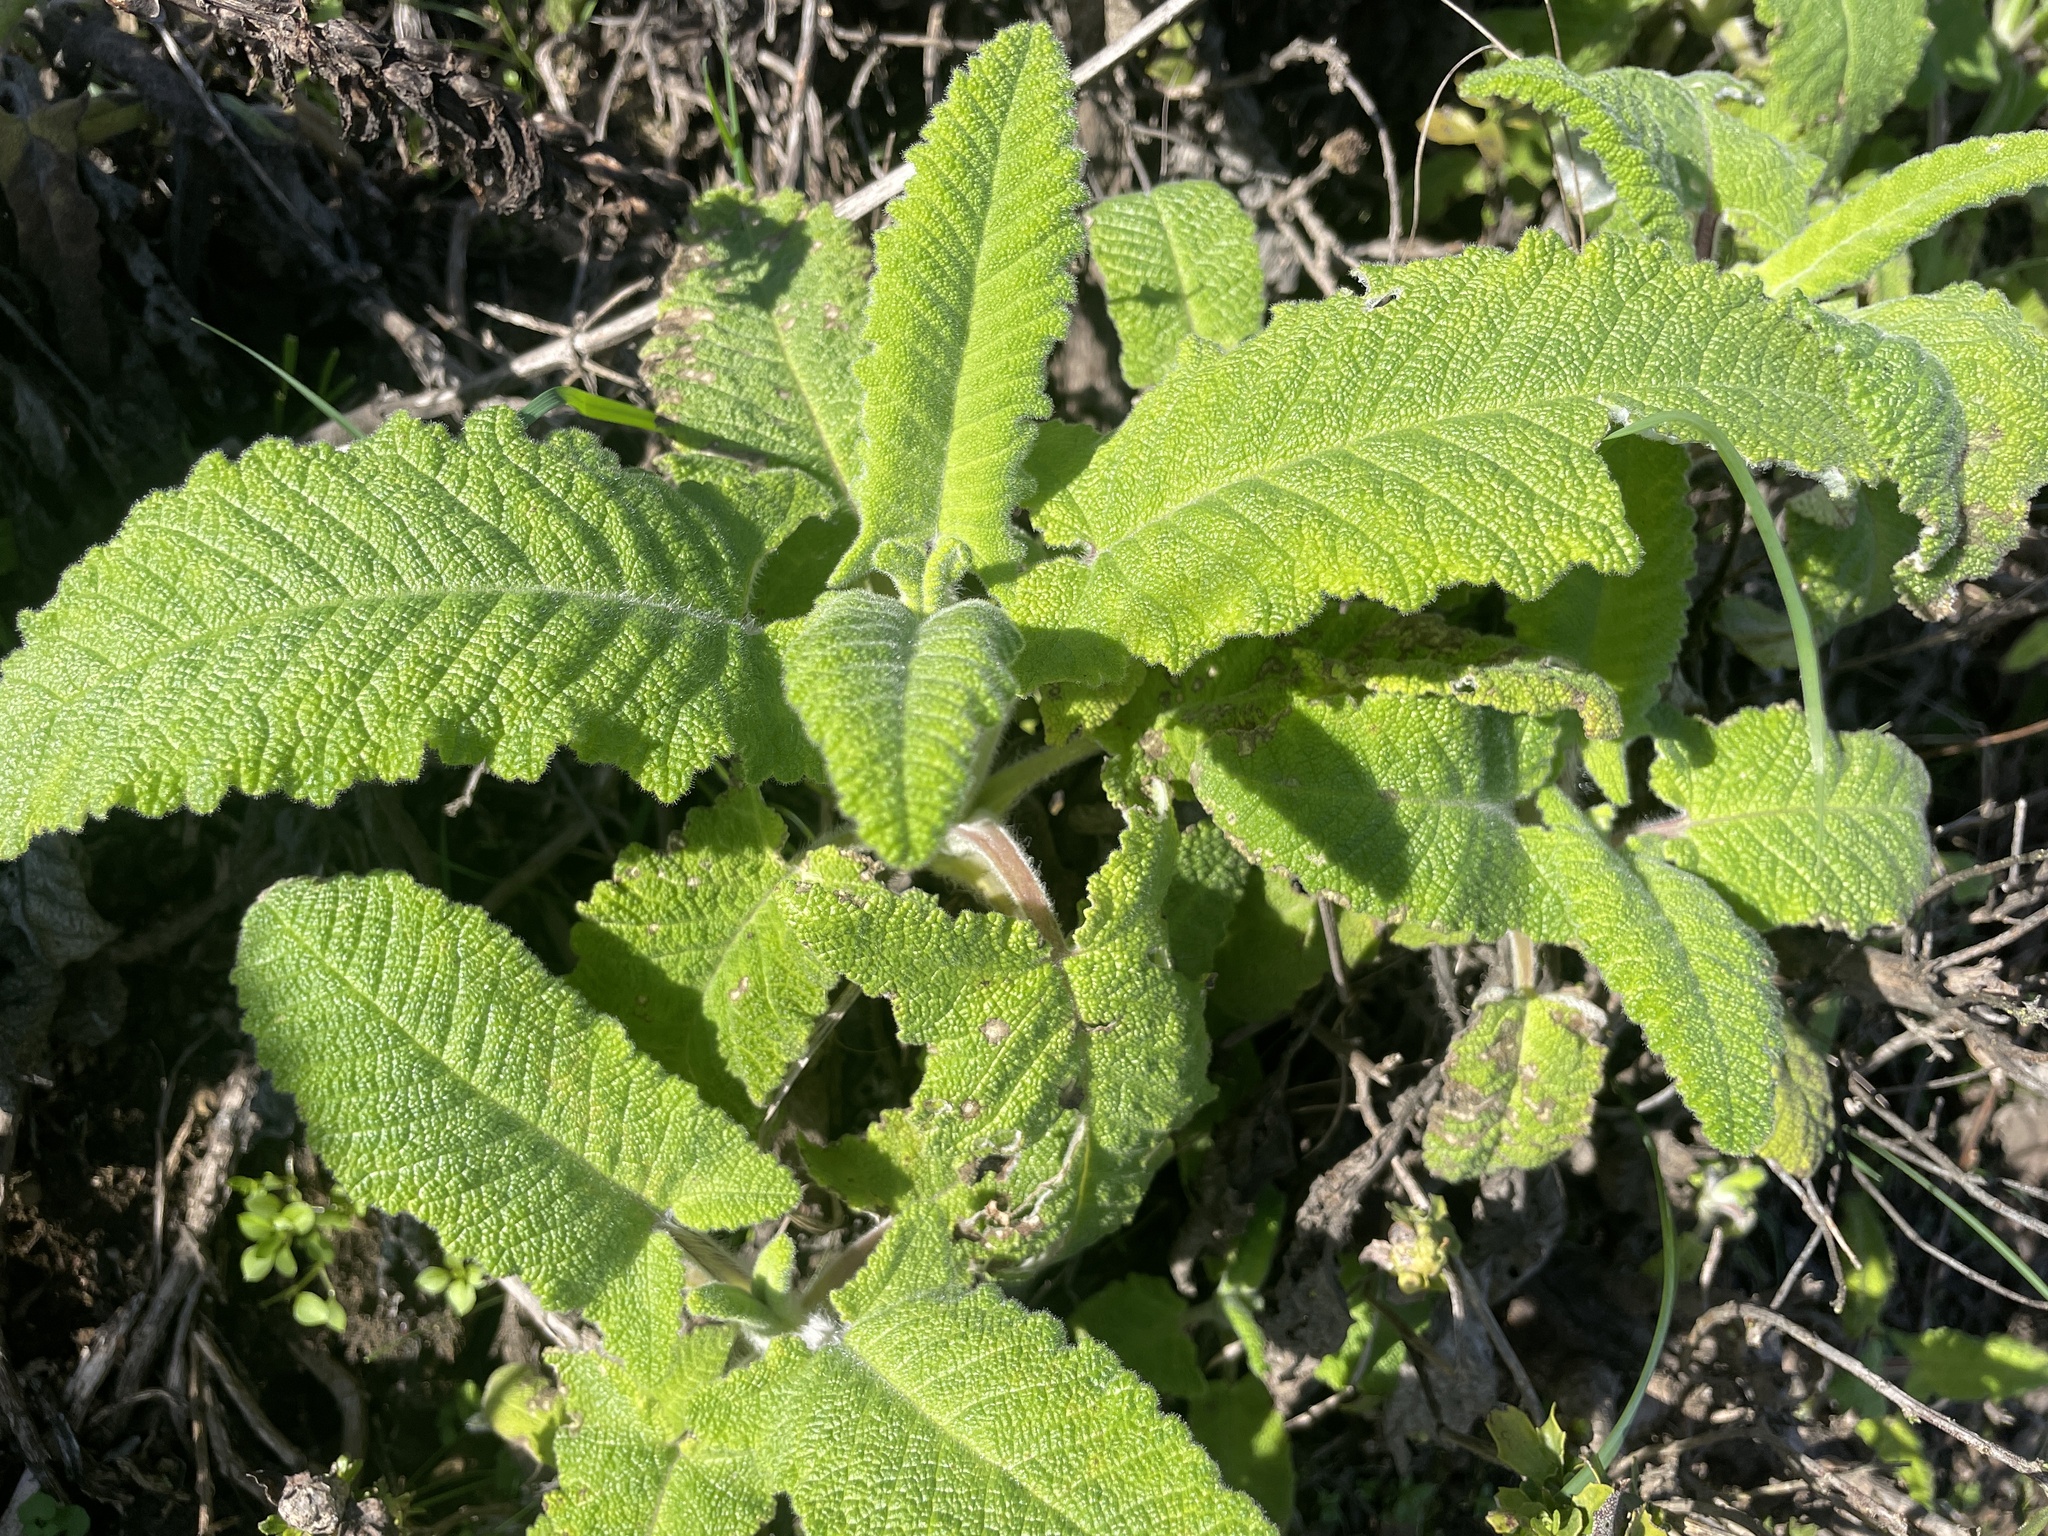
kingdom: Plantae
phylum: Tracheophyta
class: Magnoliopsida
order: Lamiales
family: Lamiaceae
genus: Salvia
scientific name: Salvia spathacea
